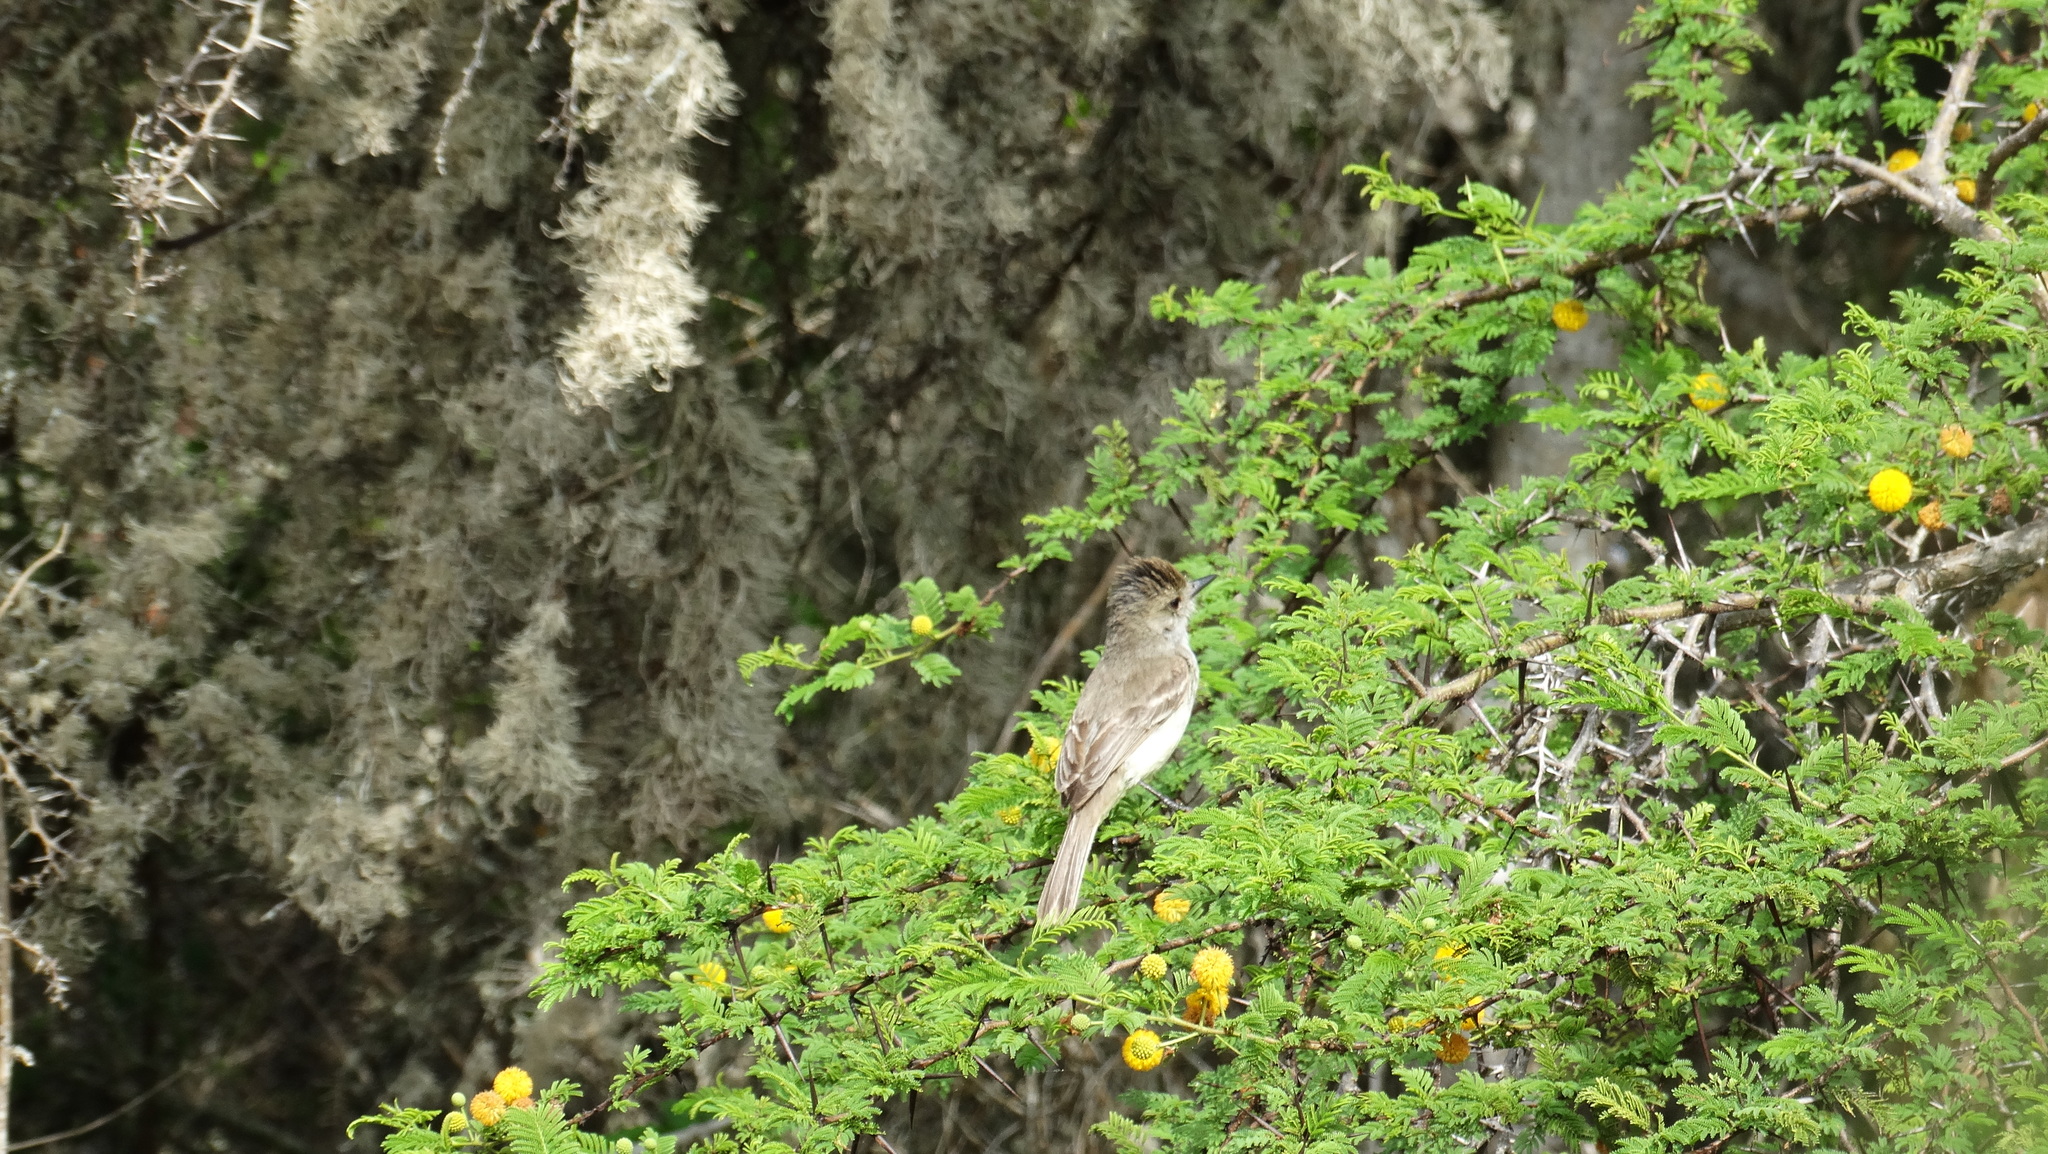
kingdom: Animalia
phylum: Chordata
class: Aves
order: Passeriformes
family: Tyrannidae
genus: Myiarchus
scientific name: Myiarchus magnirostris
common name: Galapagos flycatcher
